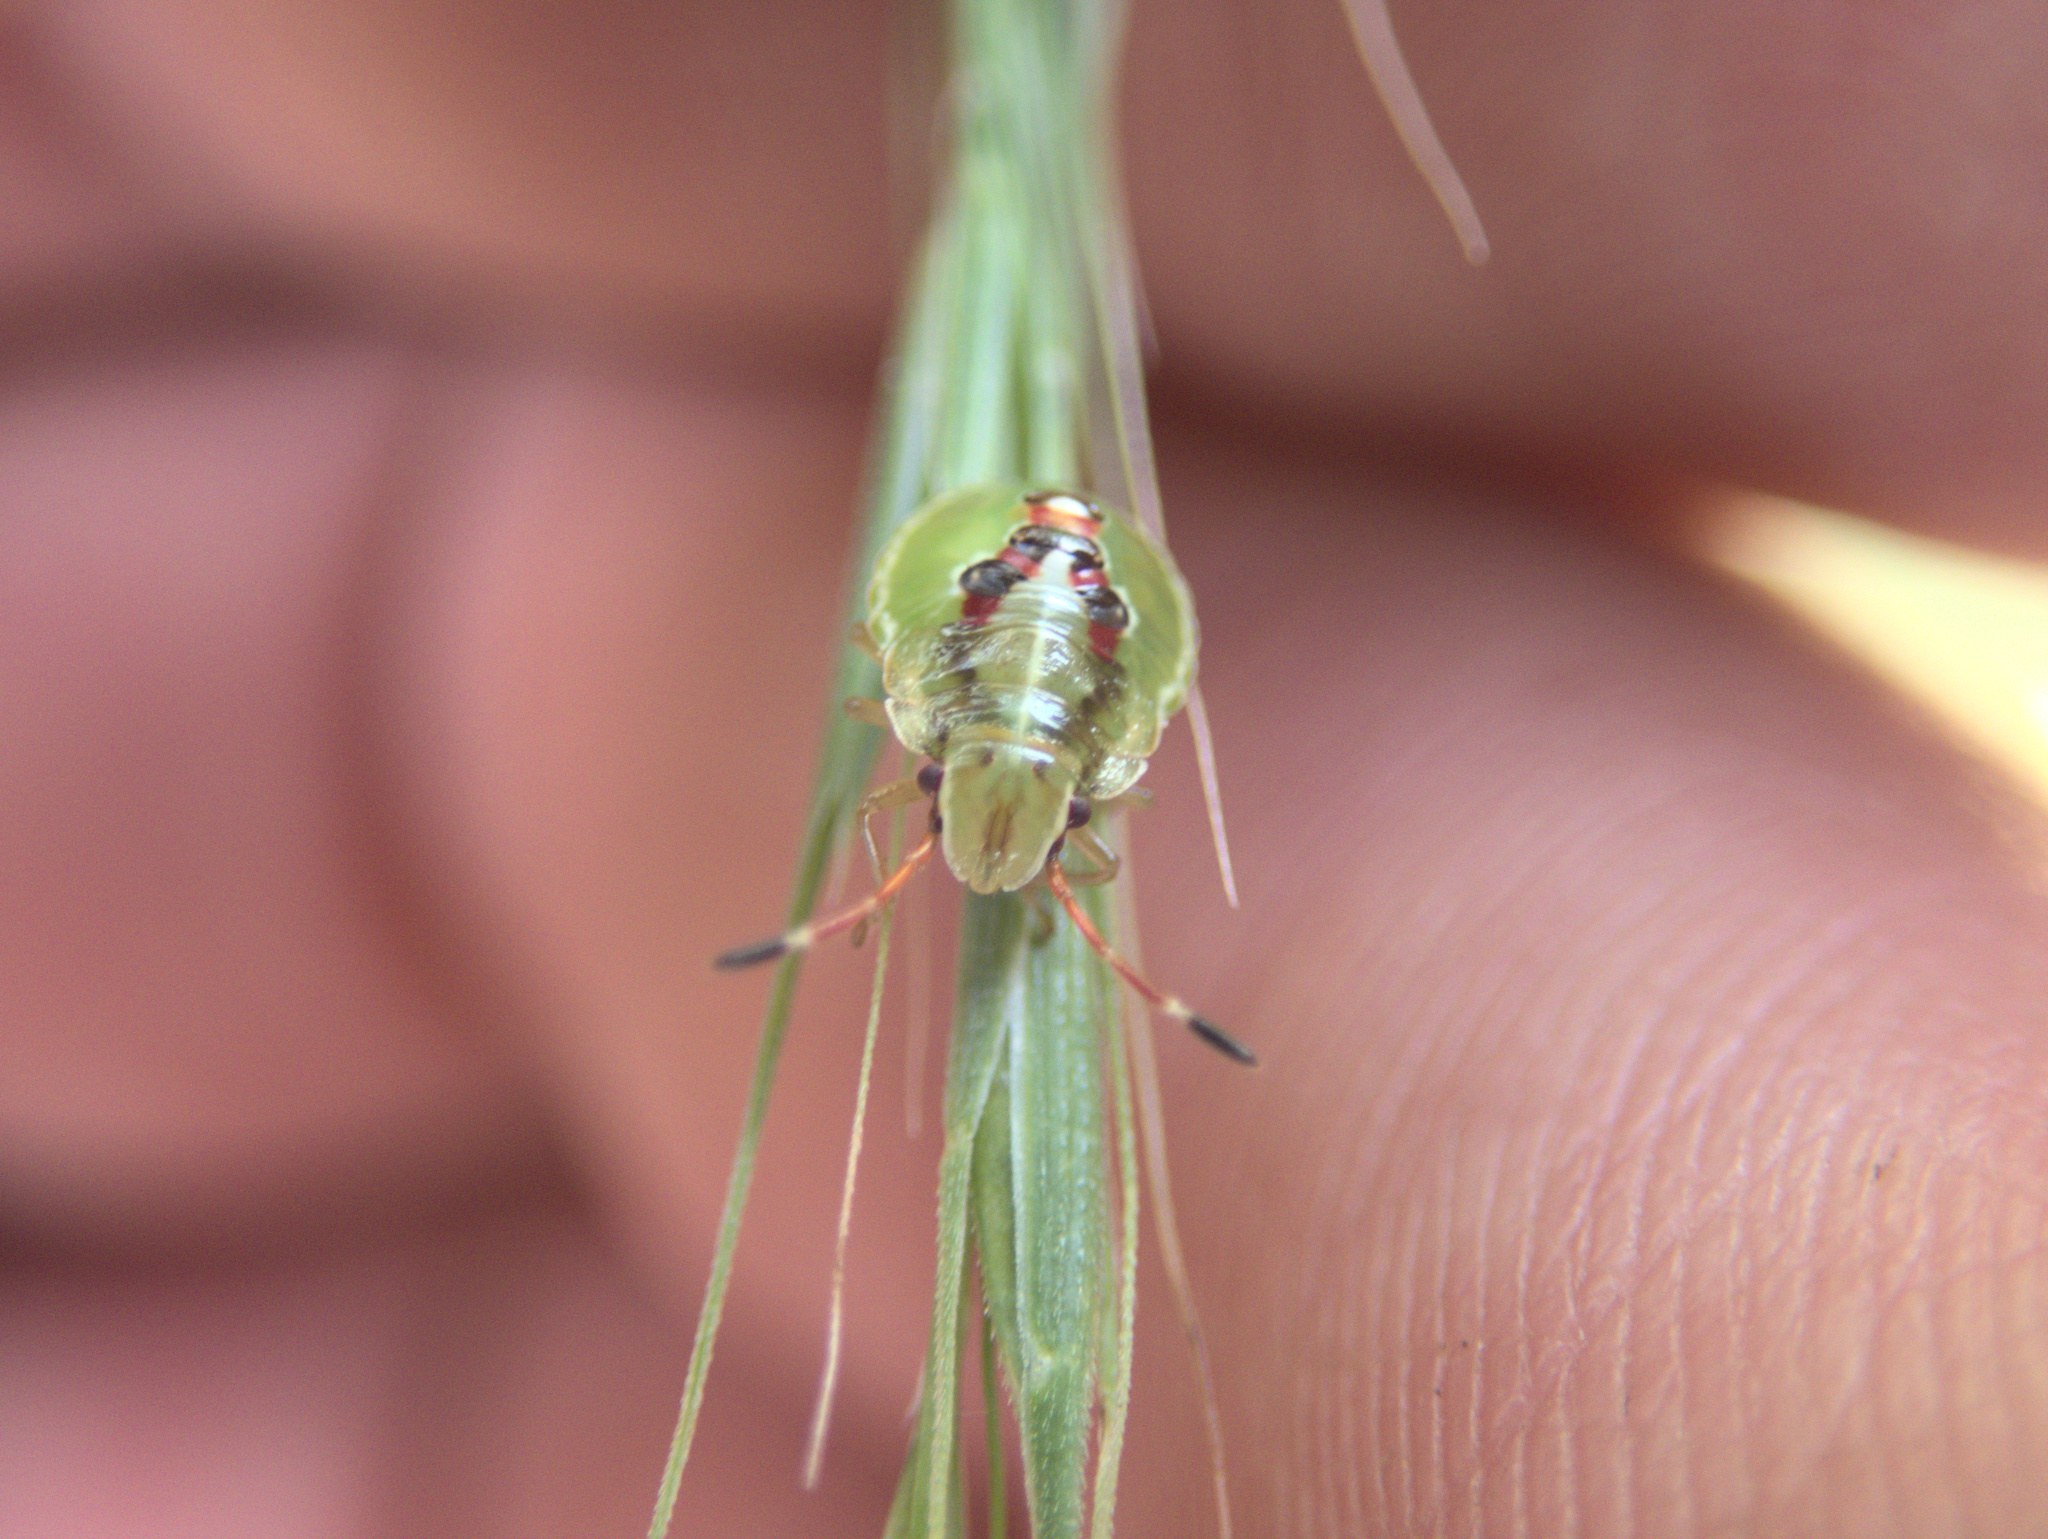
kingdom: Animalia
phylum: Arthropoda
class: Insecta
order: Hemiptera
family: Acanthosomatidae
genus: Oncacontias
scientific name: Oncacontias vittatus
